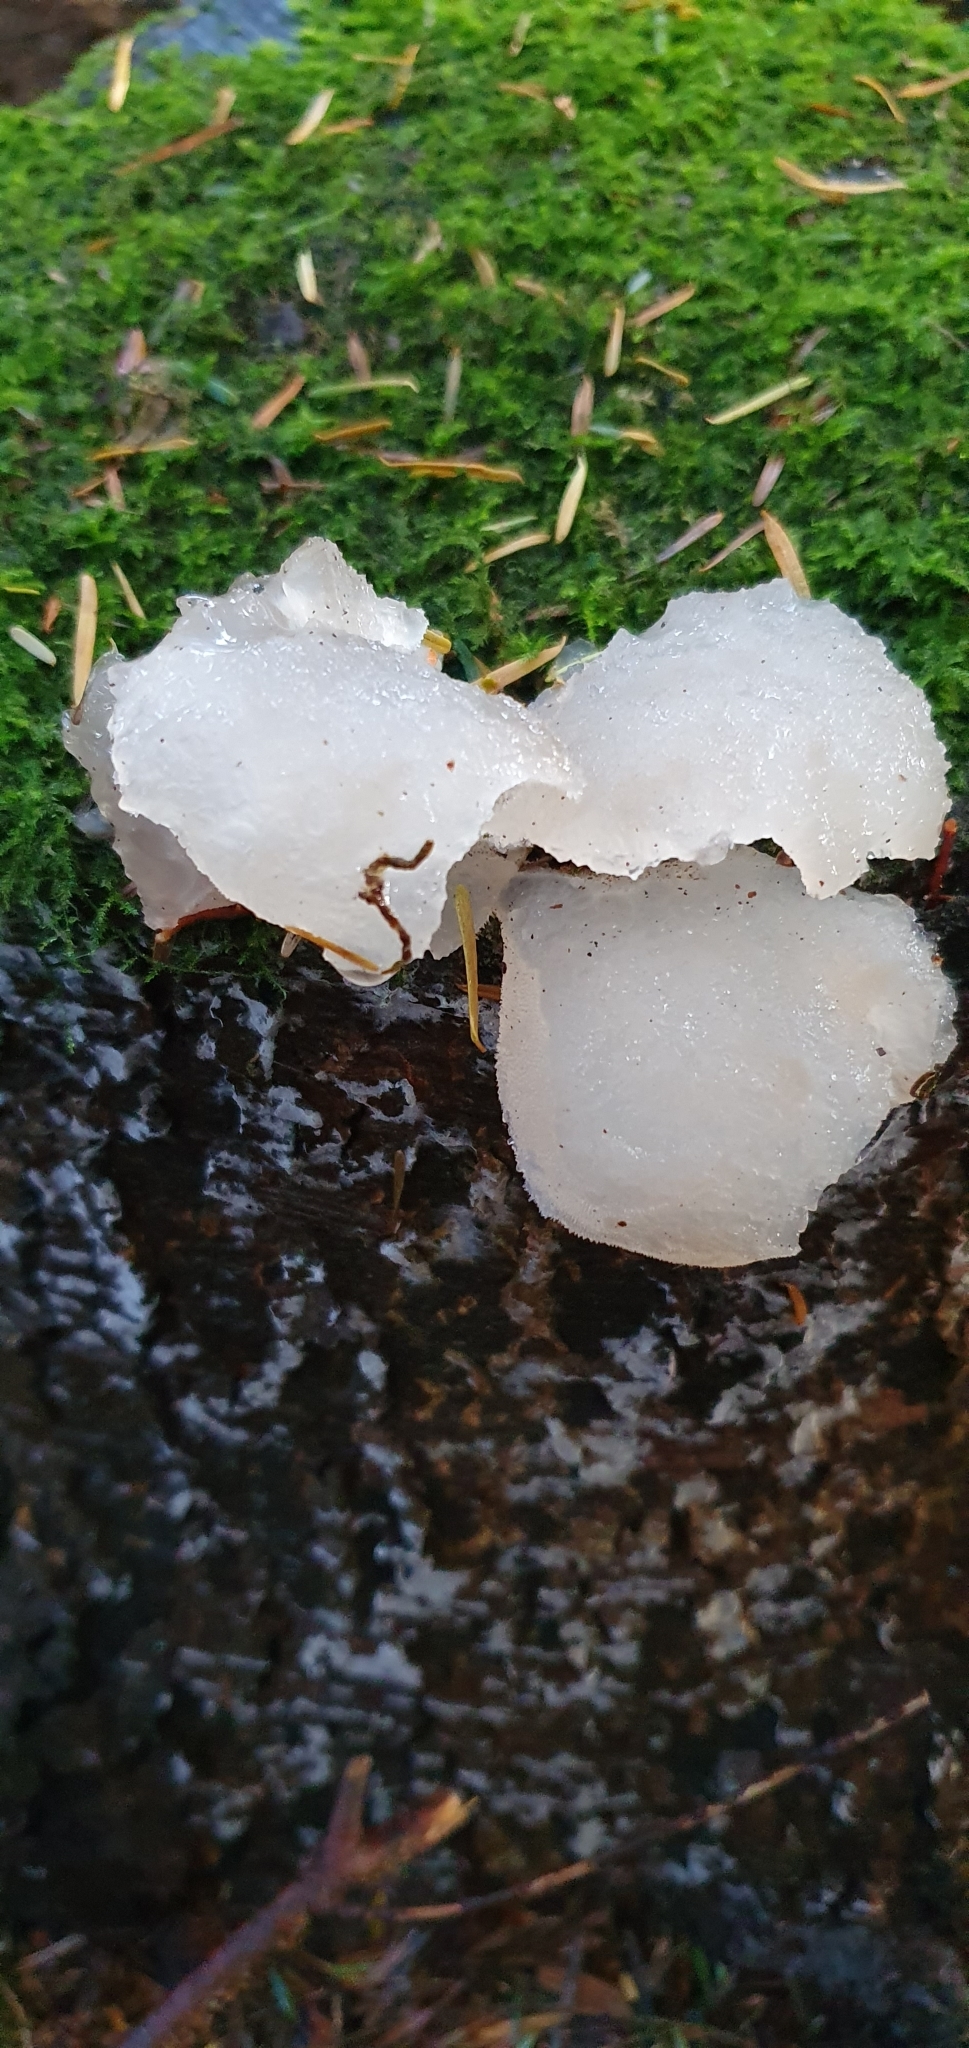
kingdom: Fungi
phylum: Basidiomycota
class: Agaricomycetes
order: Auriculariales
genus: Pseudohydnum
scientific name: Pseudohydnum gelatinosum
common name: Jelly tongue
